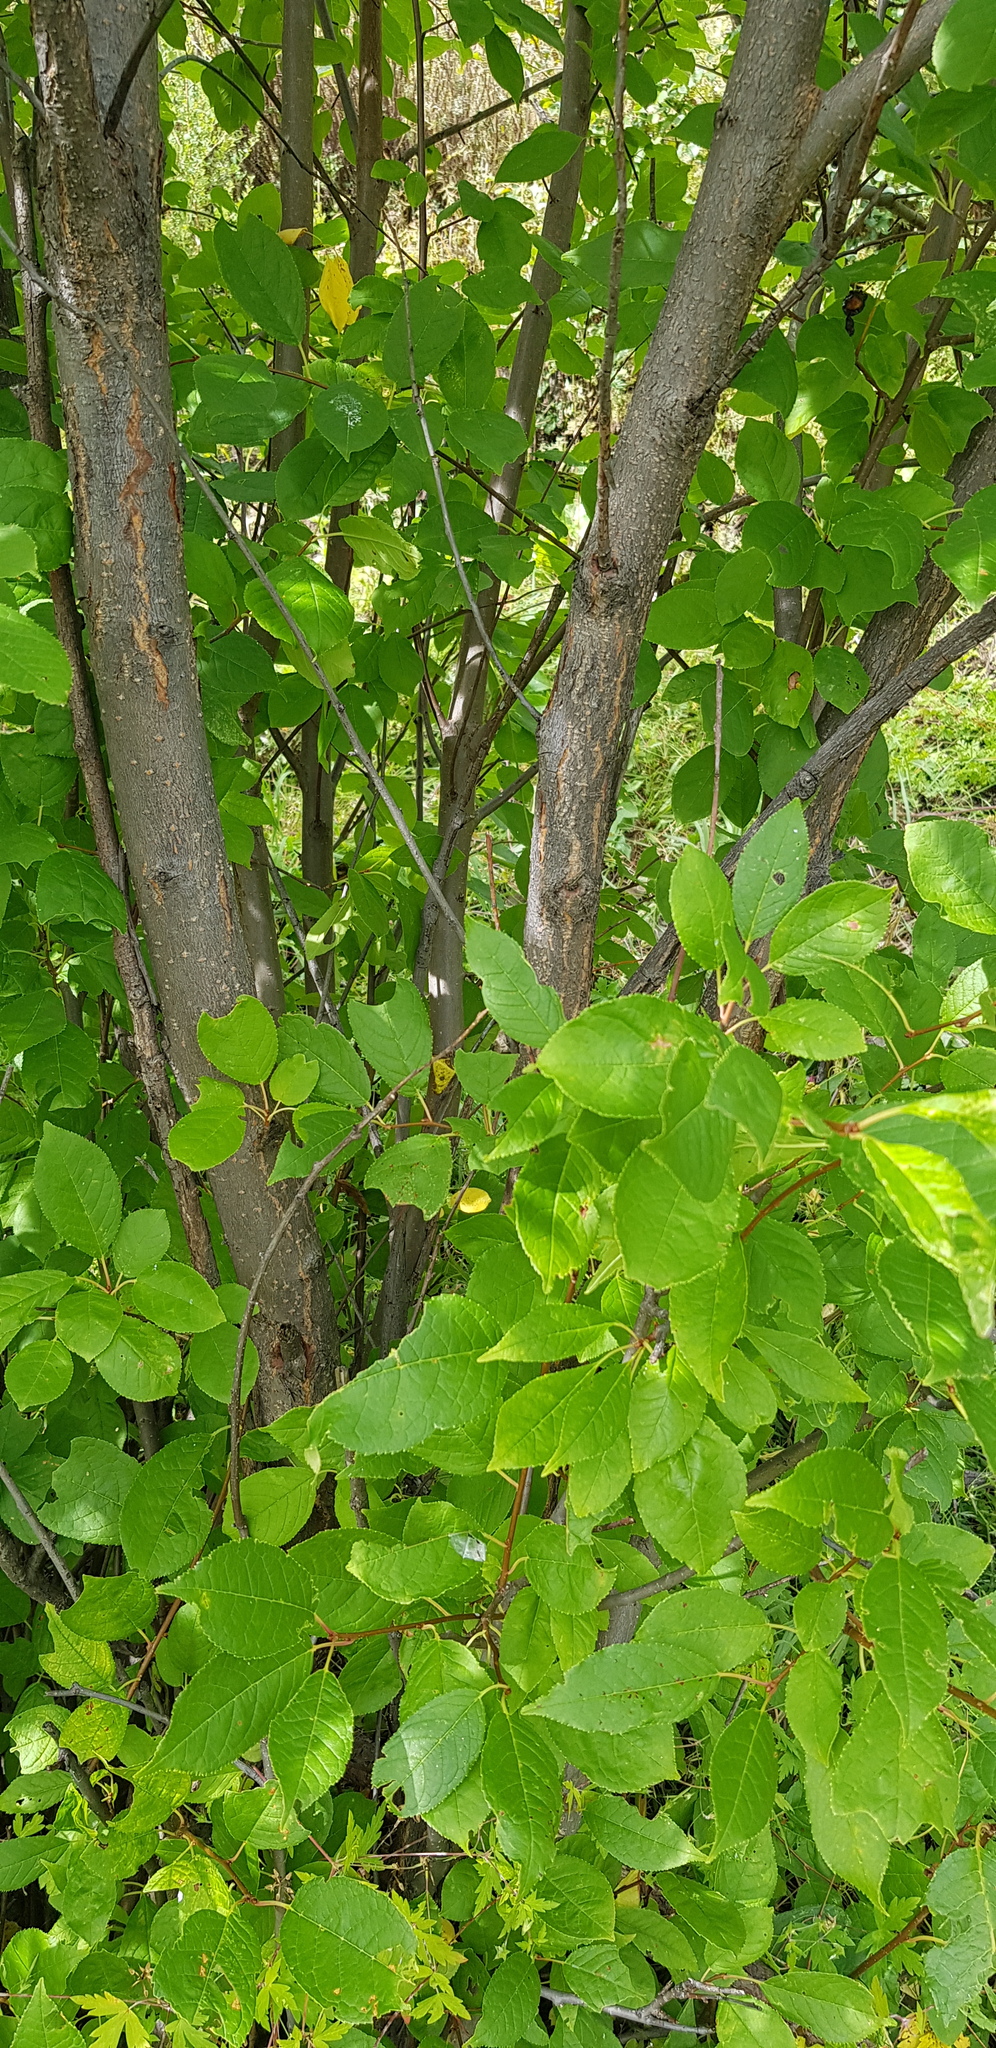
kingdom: Plantae
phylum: Tracheophyta
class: Magnoliopsida
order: Rosales
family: Rosaceae
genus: Prunus
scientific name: Prunus padus
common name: Bird cherry
